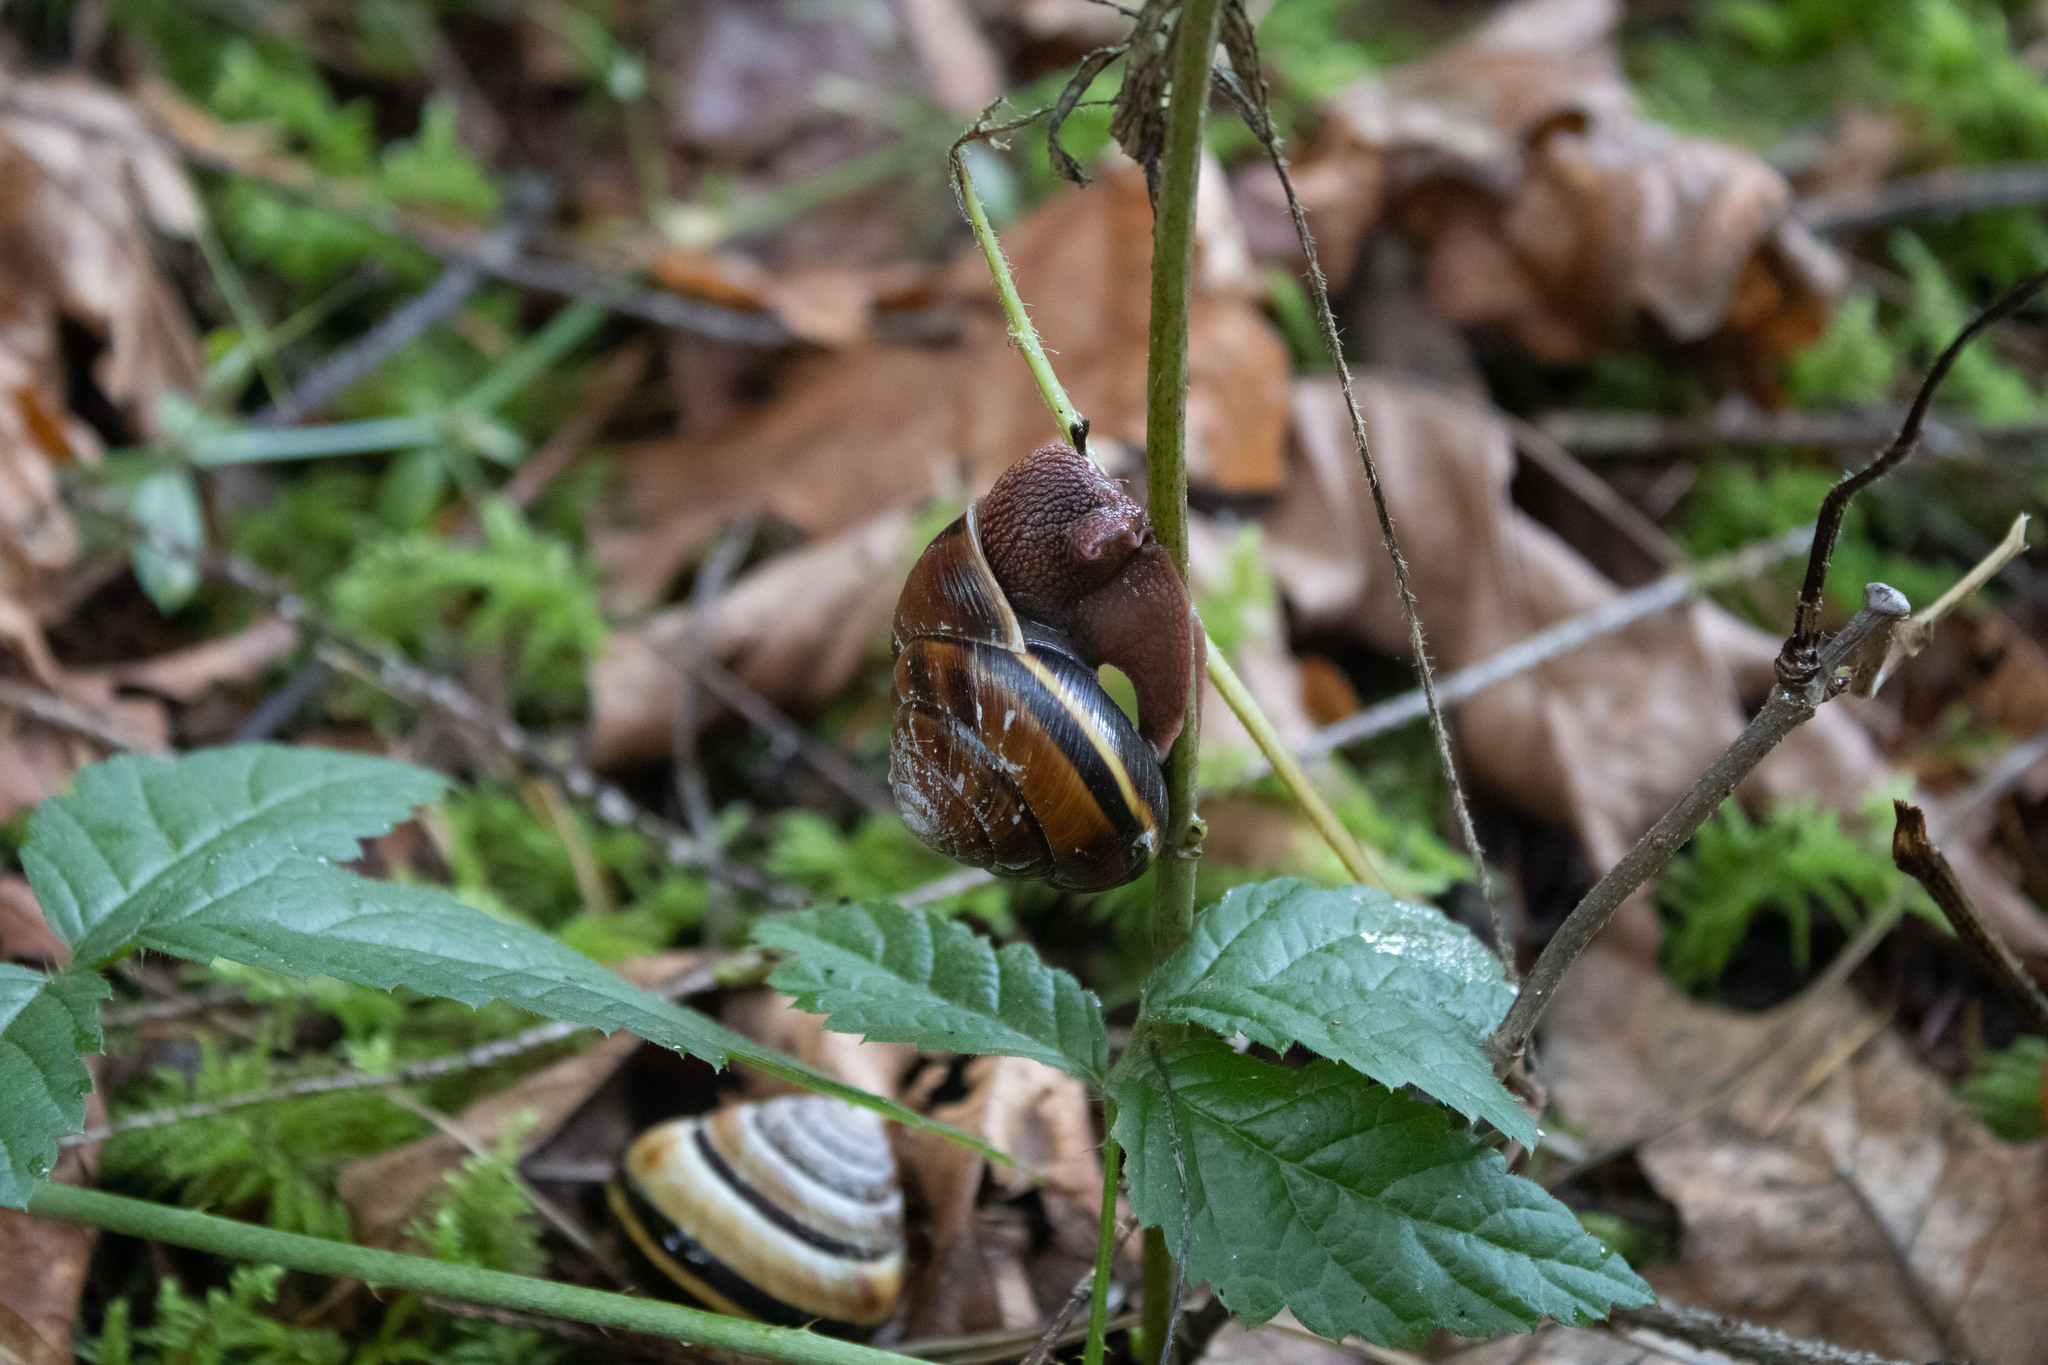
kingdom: Animalia
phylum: Mollusca
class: Gastropoda
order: Stylommatophora
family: Xanthonychidae
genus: Monadenia
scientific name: Monadenia fidelis
